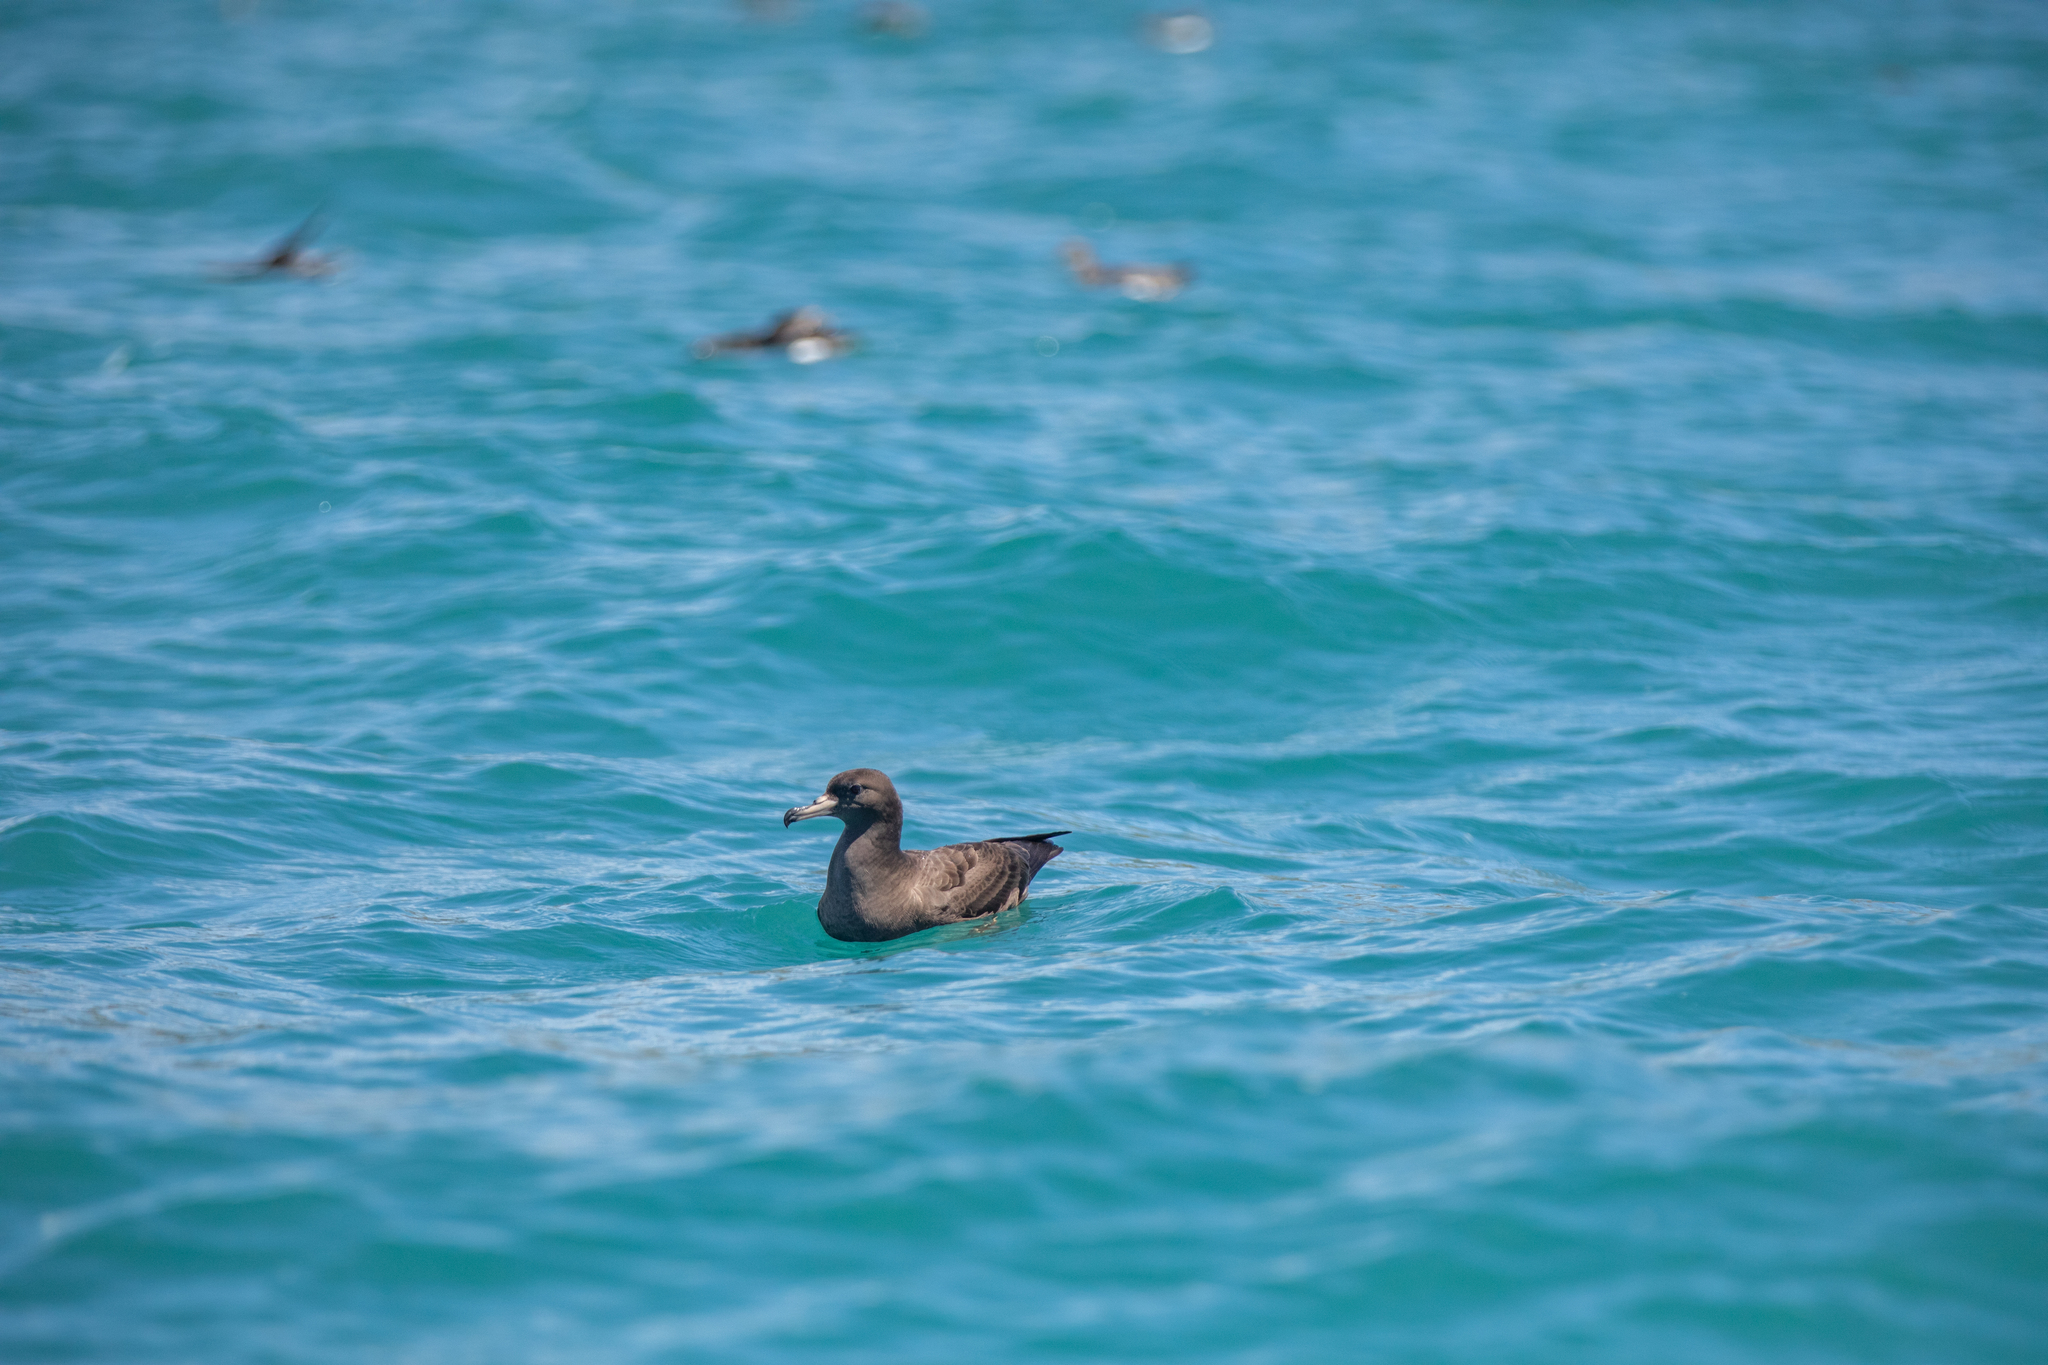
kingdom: Animalia
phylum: Chordata
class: Aves
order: Procellariiformes
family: Procellariidae
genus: Puffinus
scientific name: Puffinus carneipes
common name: Flesh-footed shearwater
